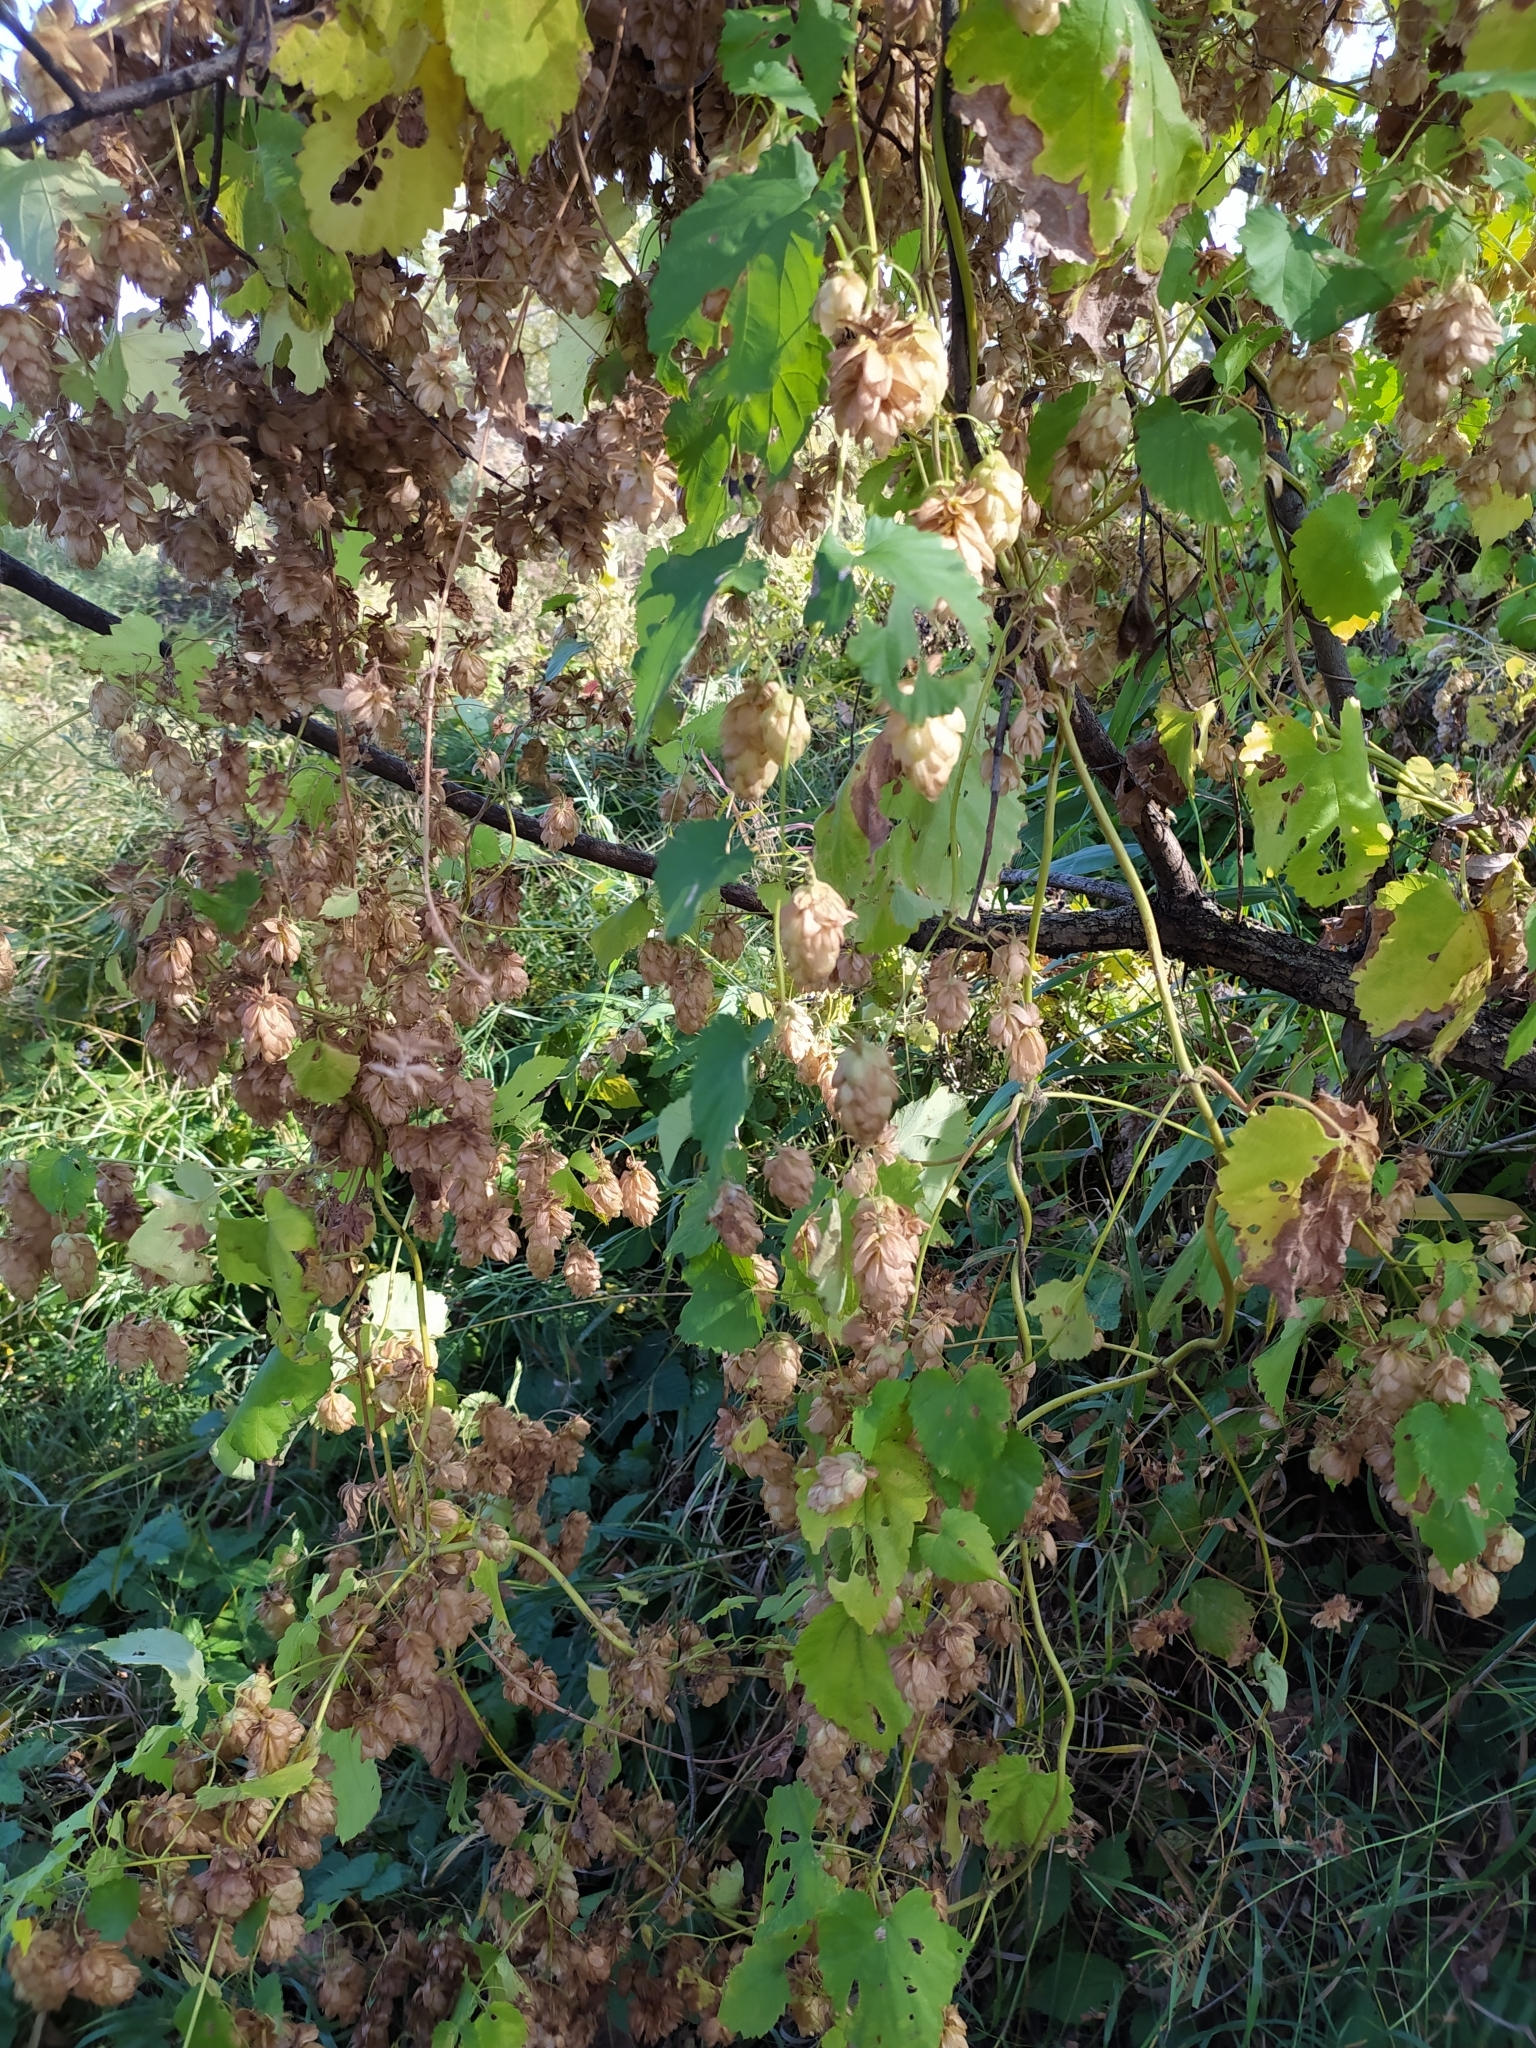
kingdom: Plantae
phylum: Tracheophyta
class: Magnoliopsida
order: Rosales
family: Cannabaceae
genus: Humulus
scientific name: Humulus lupulus
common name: Hop
